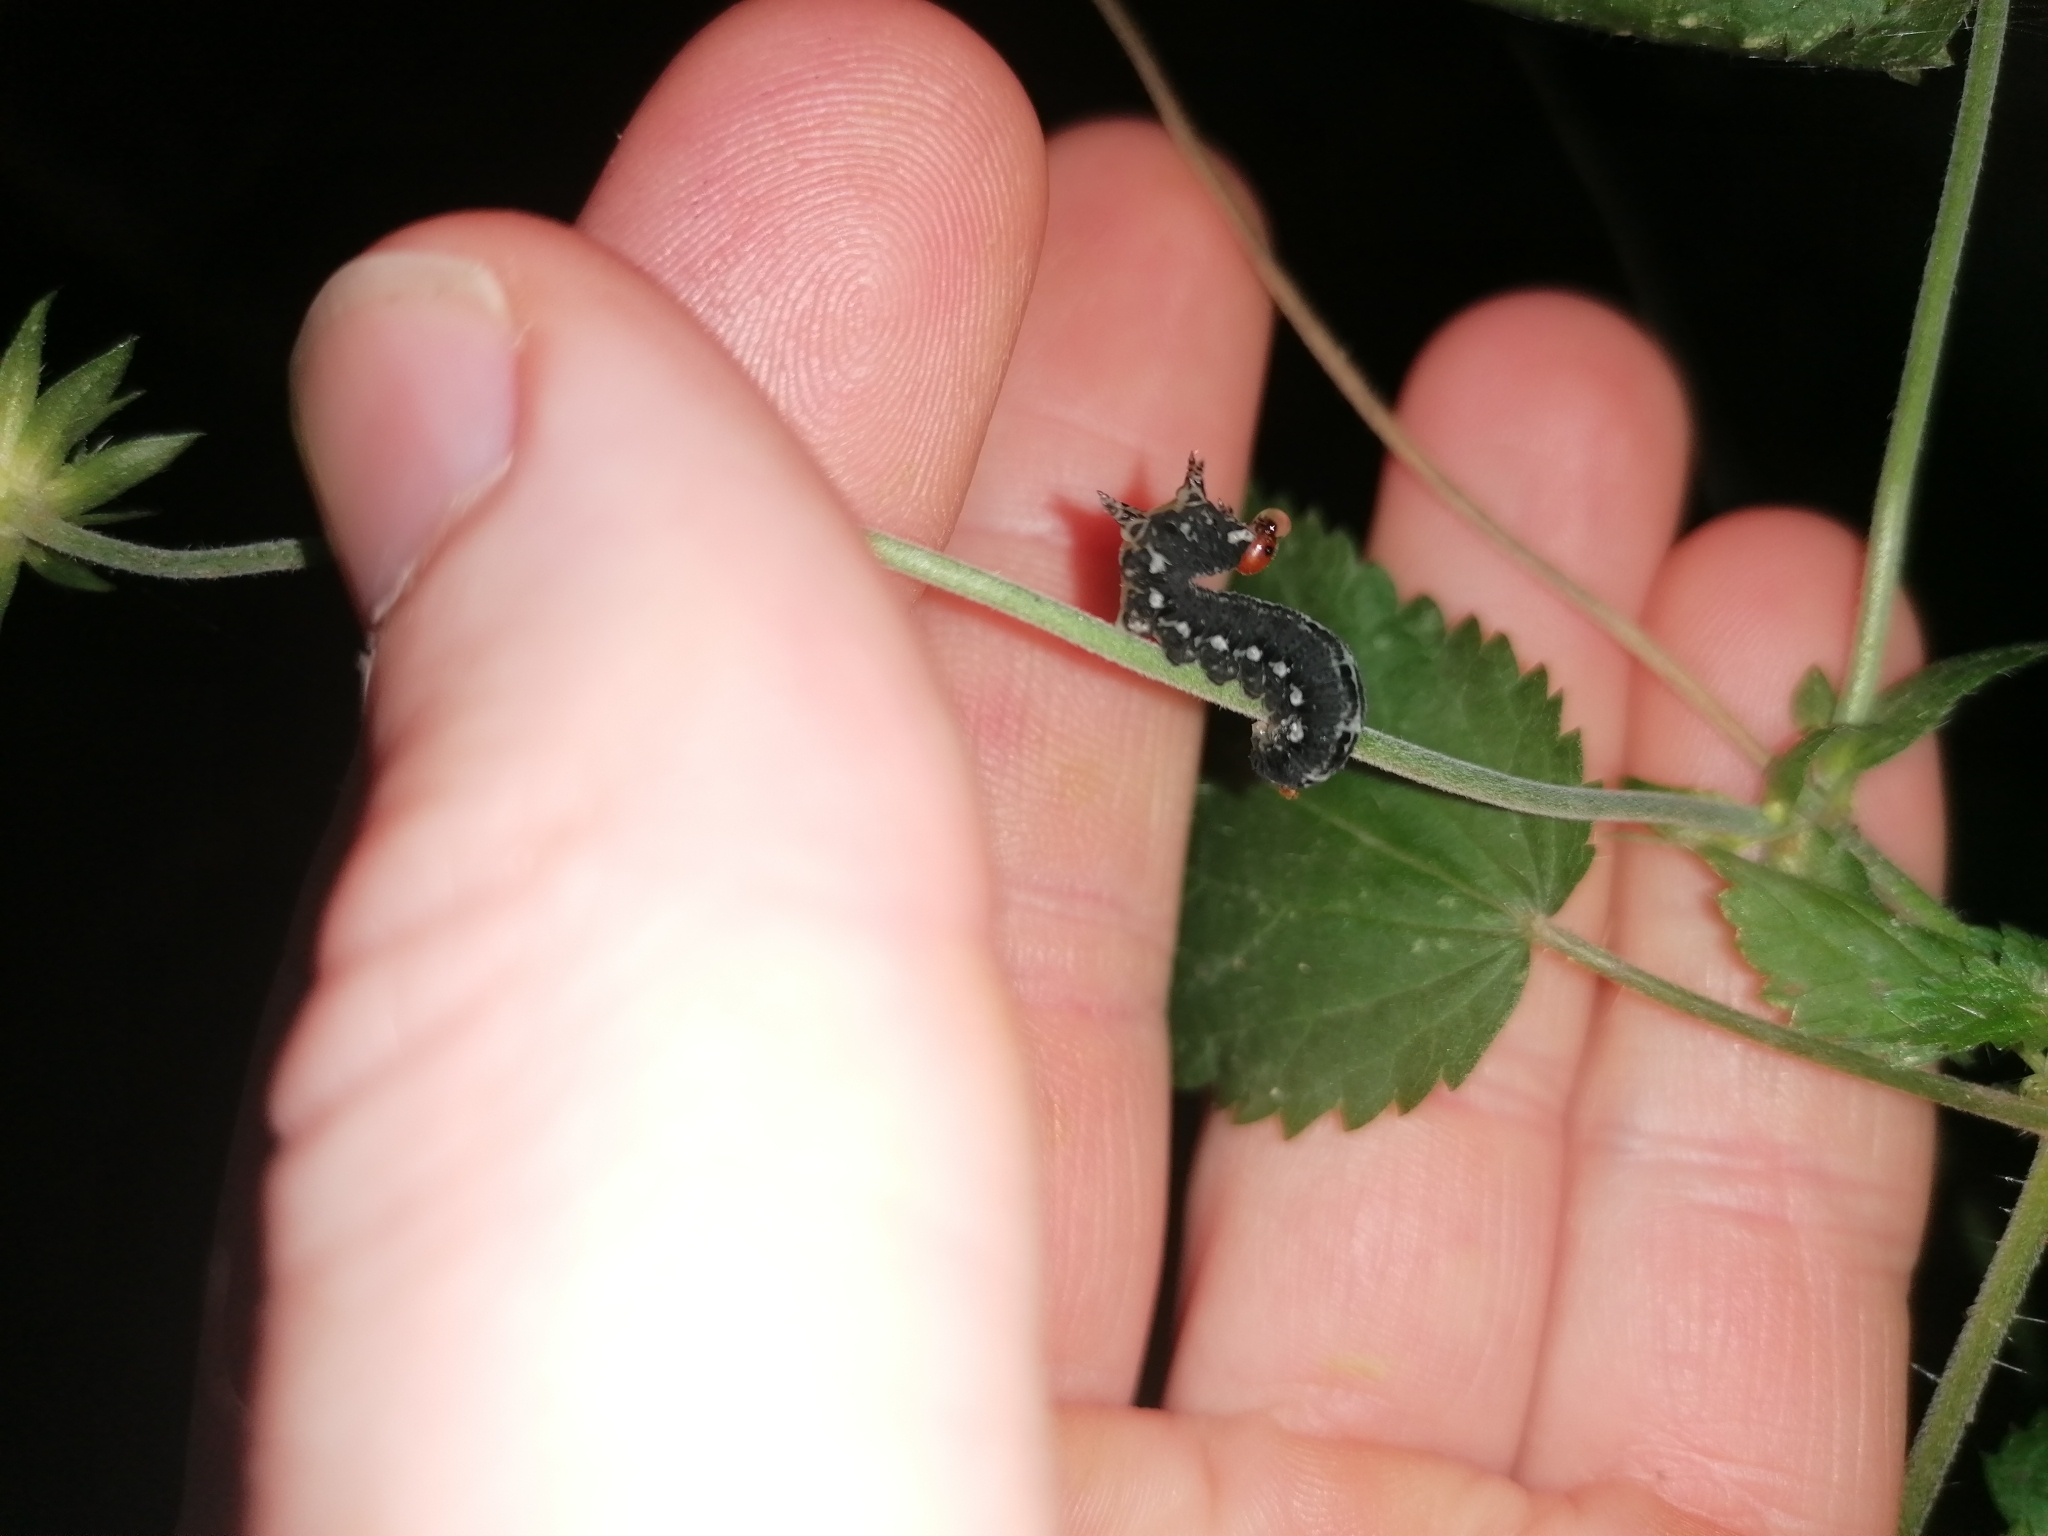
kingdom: Animalia
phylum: Arthropoda
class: Insecta
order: Hymenoptera
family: Diprionidae
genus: Gilpinia
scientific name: Gilpinia socia
